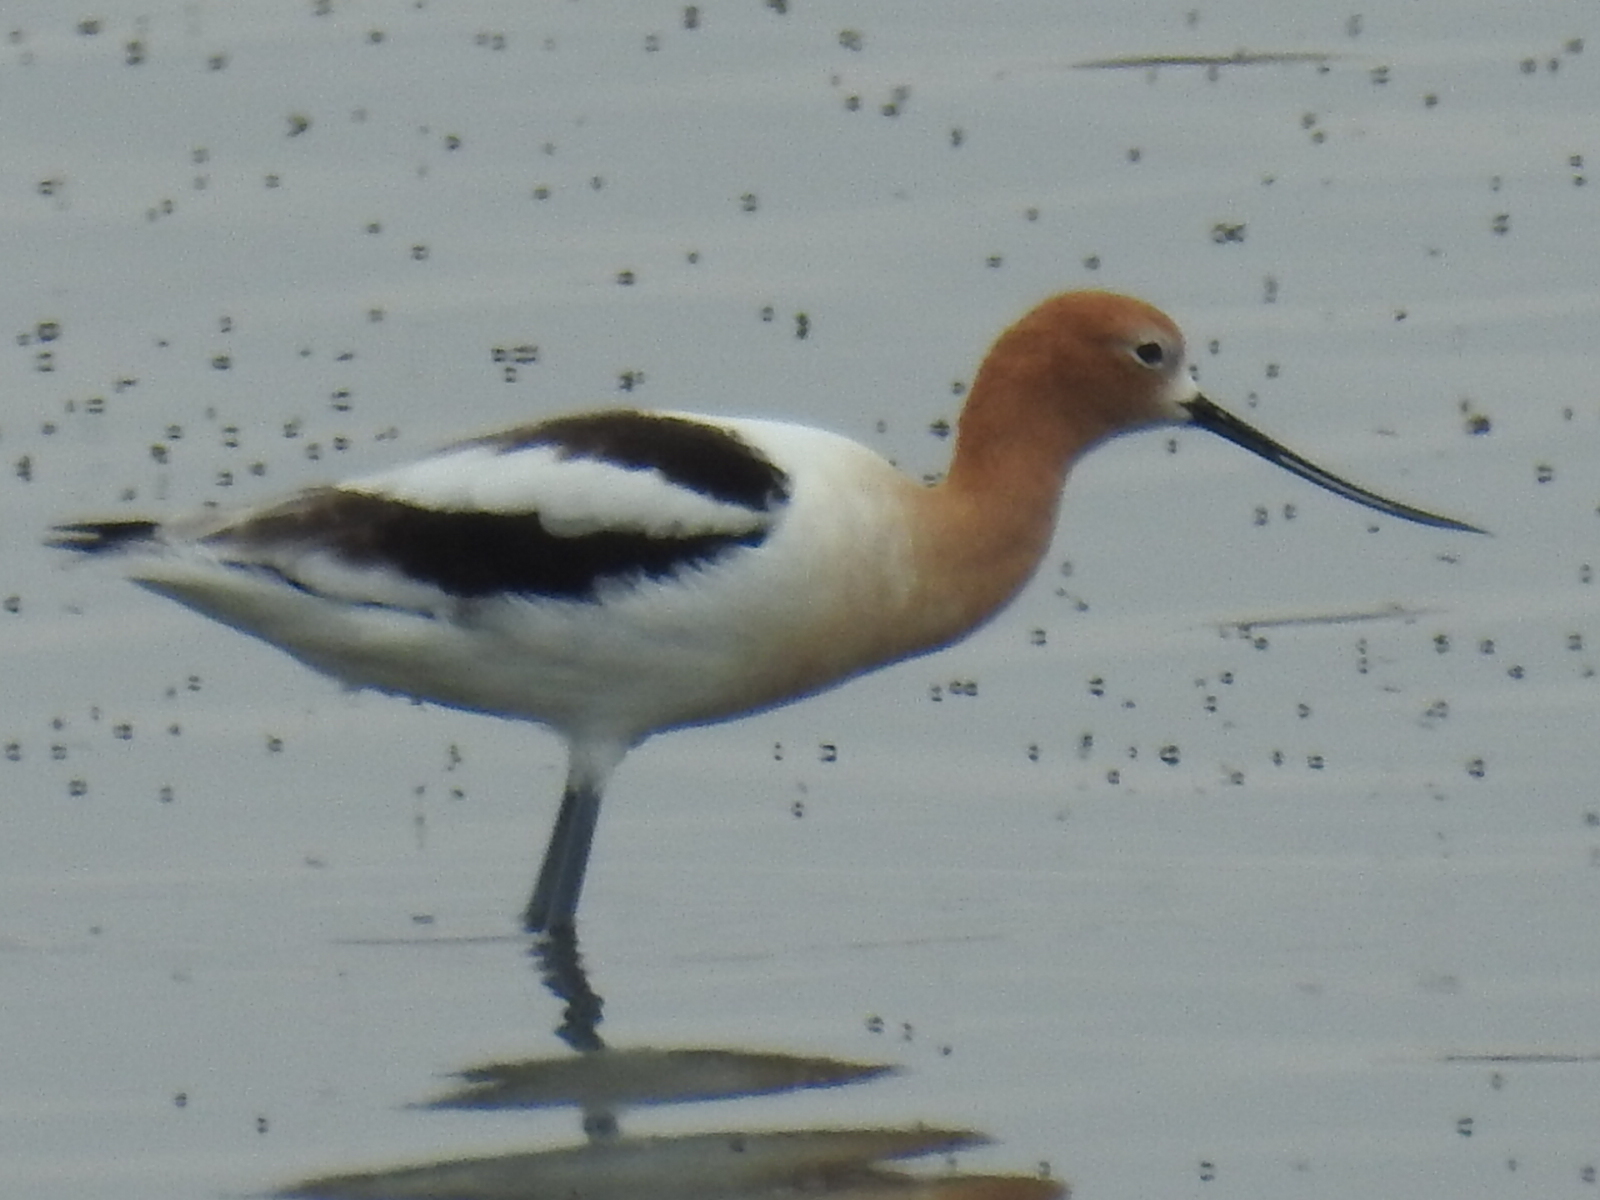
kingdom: Animalia
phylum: Chordata
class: Aves
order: Charadriiformes
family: Recurvirostridae
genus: Recurvirostra
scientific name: Recurvirostra americana
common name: American avocet
